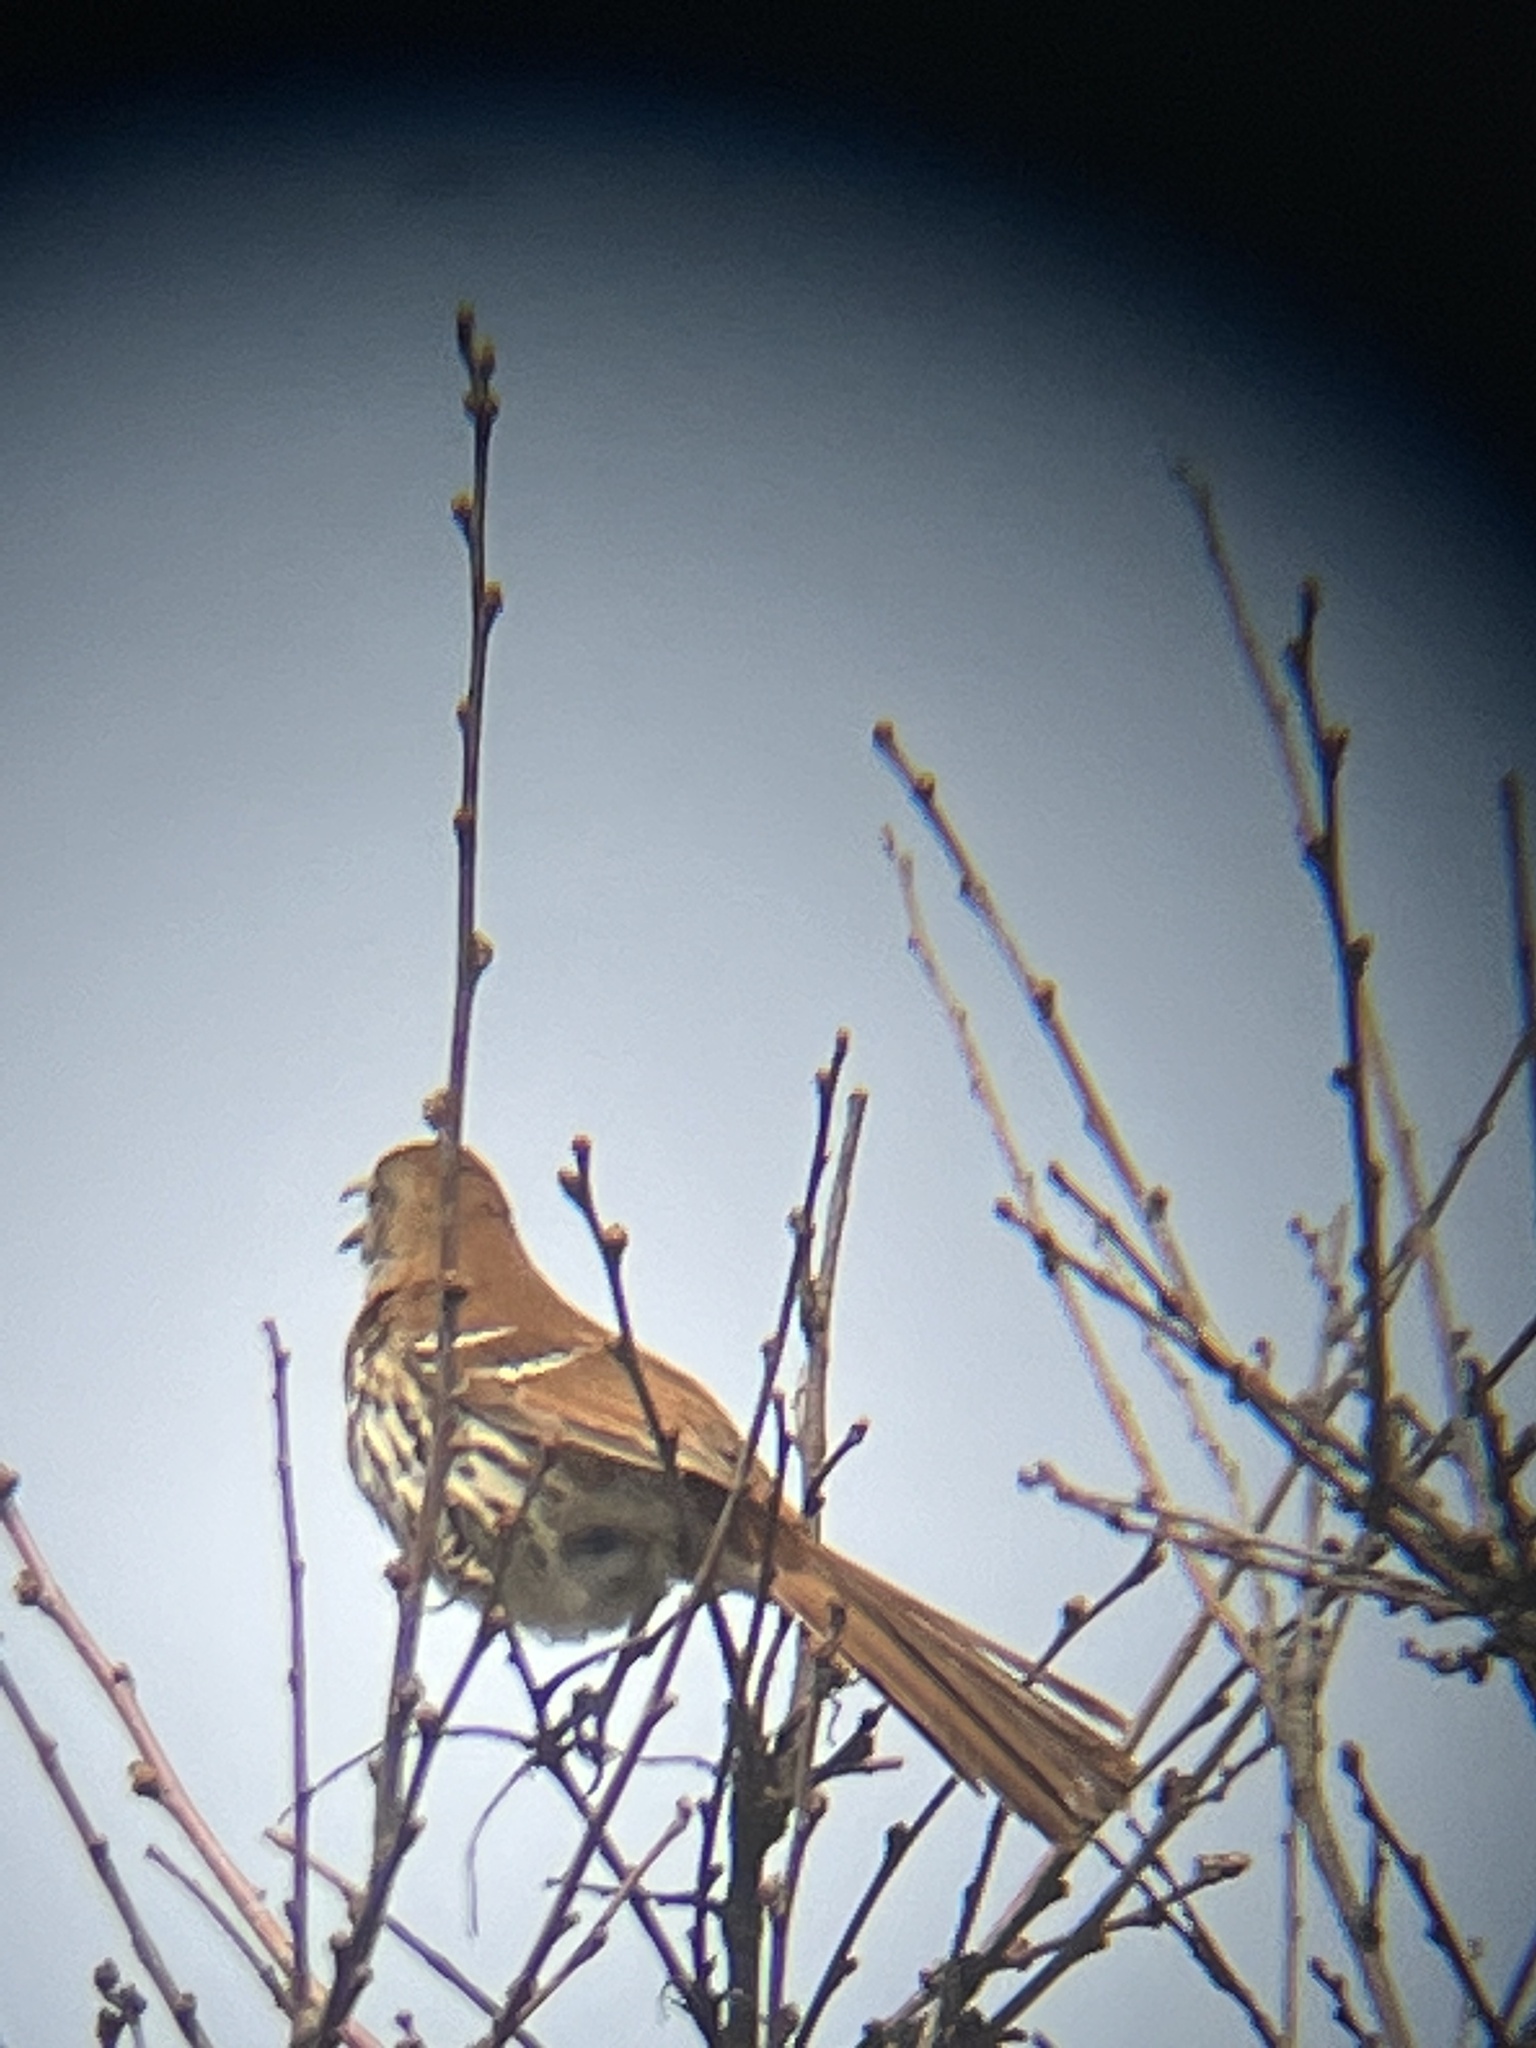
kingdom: Animalia
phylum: Chordata
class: Aves
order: Passeriformes
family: Mimidae
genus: Toxostoma
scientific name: Toxostoma rufum
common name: Brown thrasher
